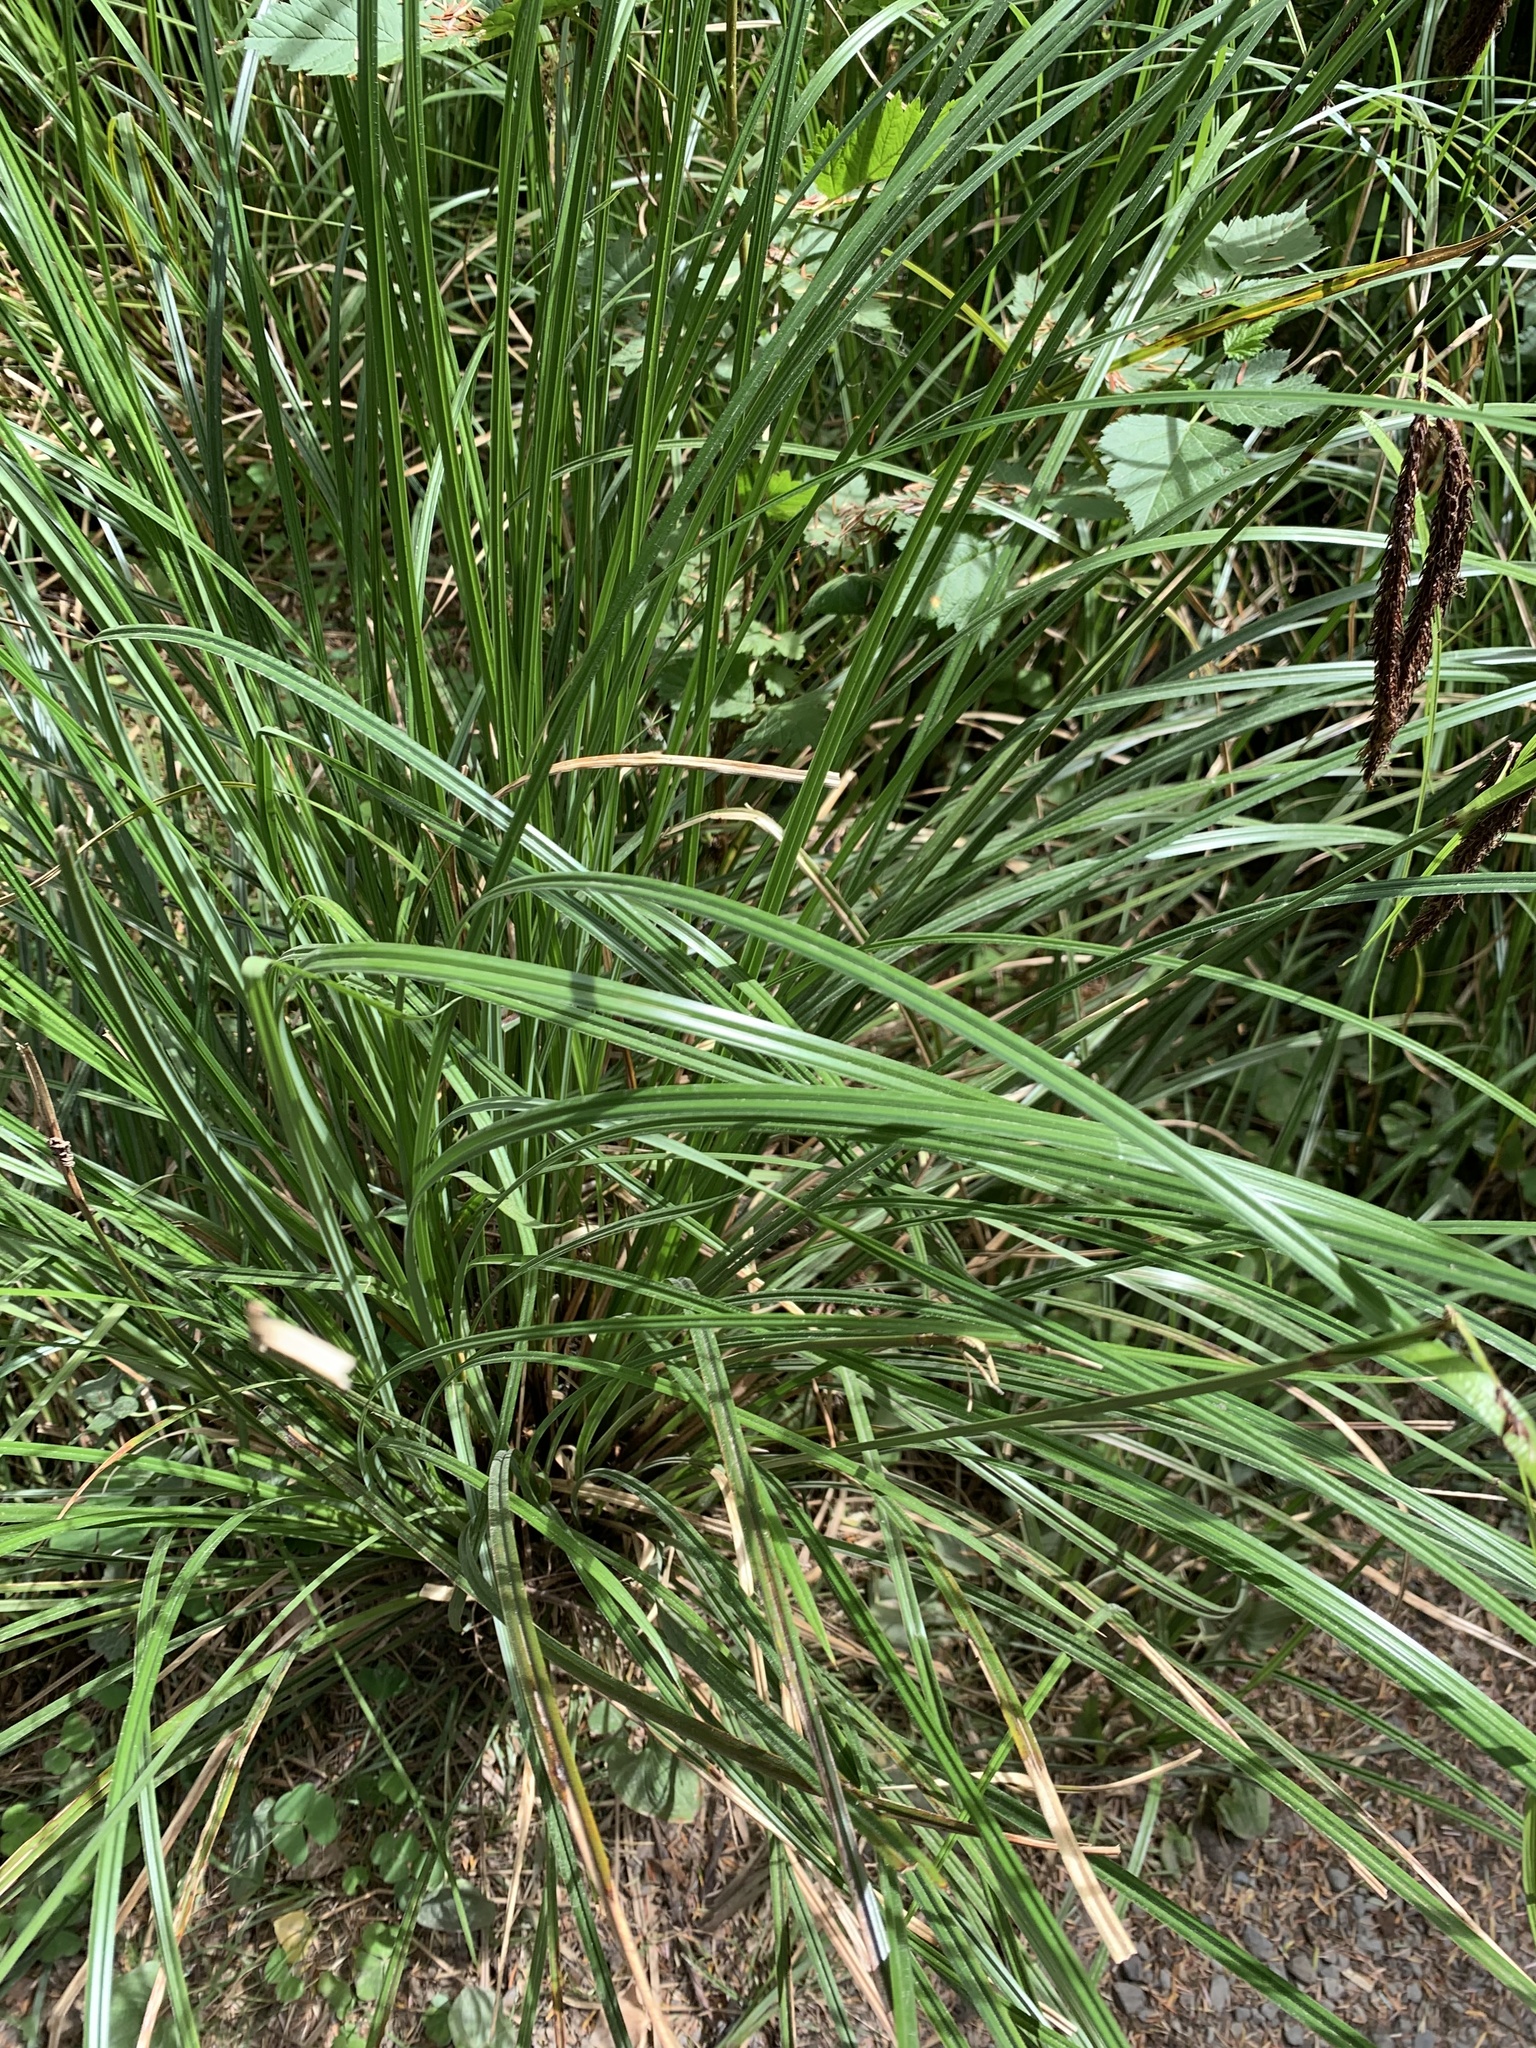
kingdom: Plantae
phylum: Tracheophyta
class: Liliopsida
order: Poales
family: Cyperaceae
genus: Carex
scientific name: Carex obnupta
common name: Slough sedge
